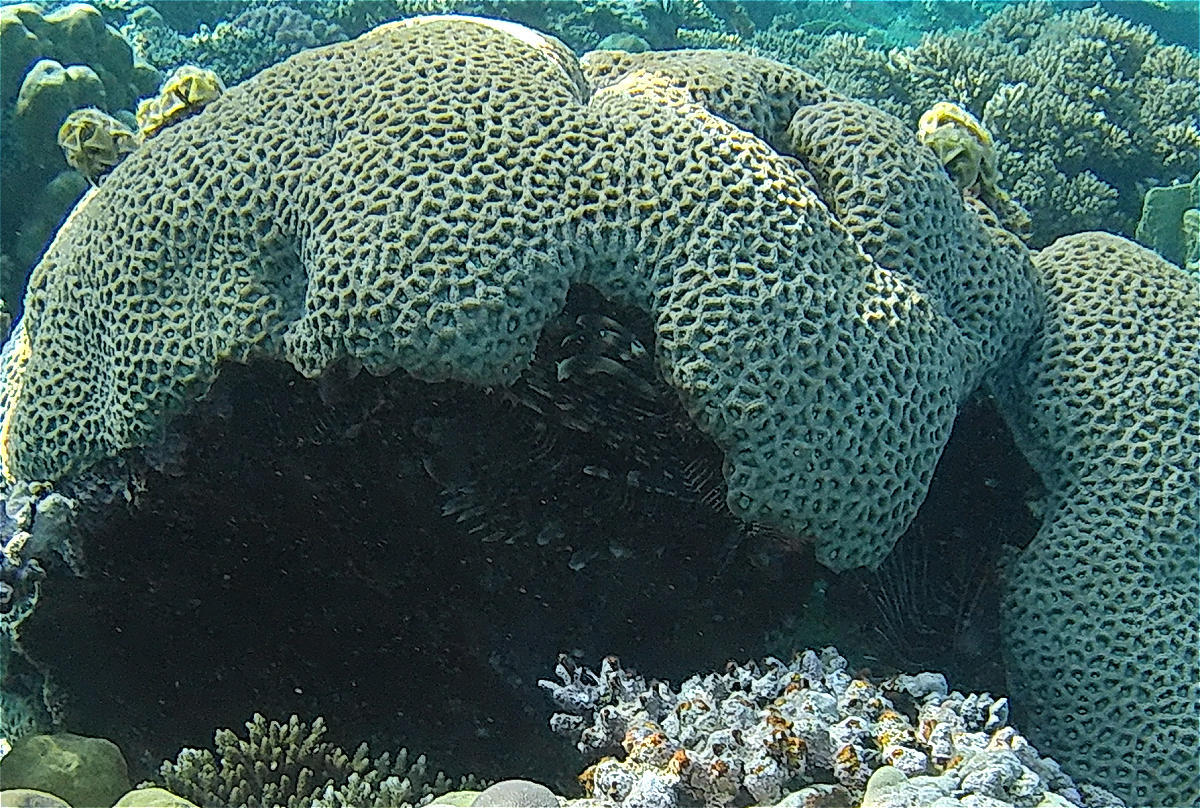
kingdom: Animalia
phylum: Chordata
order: Scorpaeniformes
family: Scorpaenidae
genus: Pterois
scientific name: Pterois miles
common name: Devil firefish
